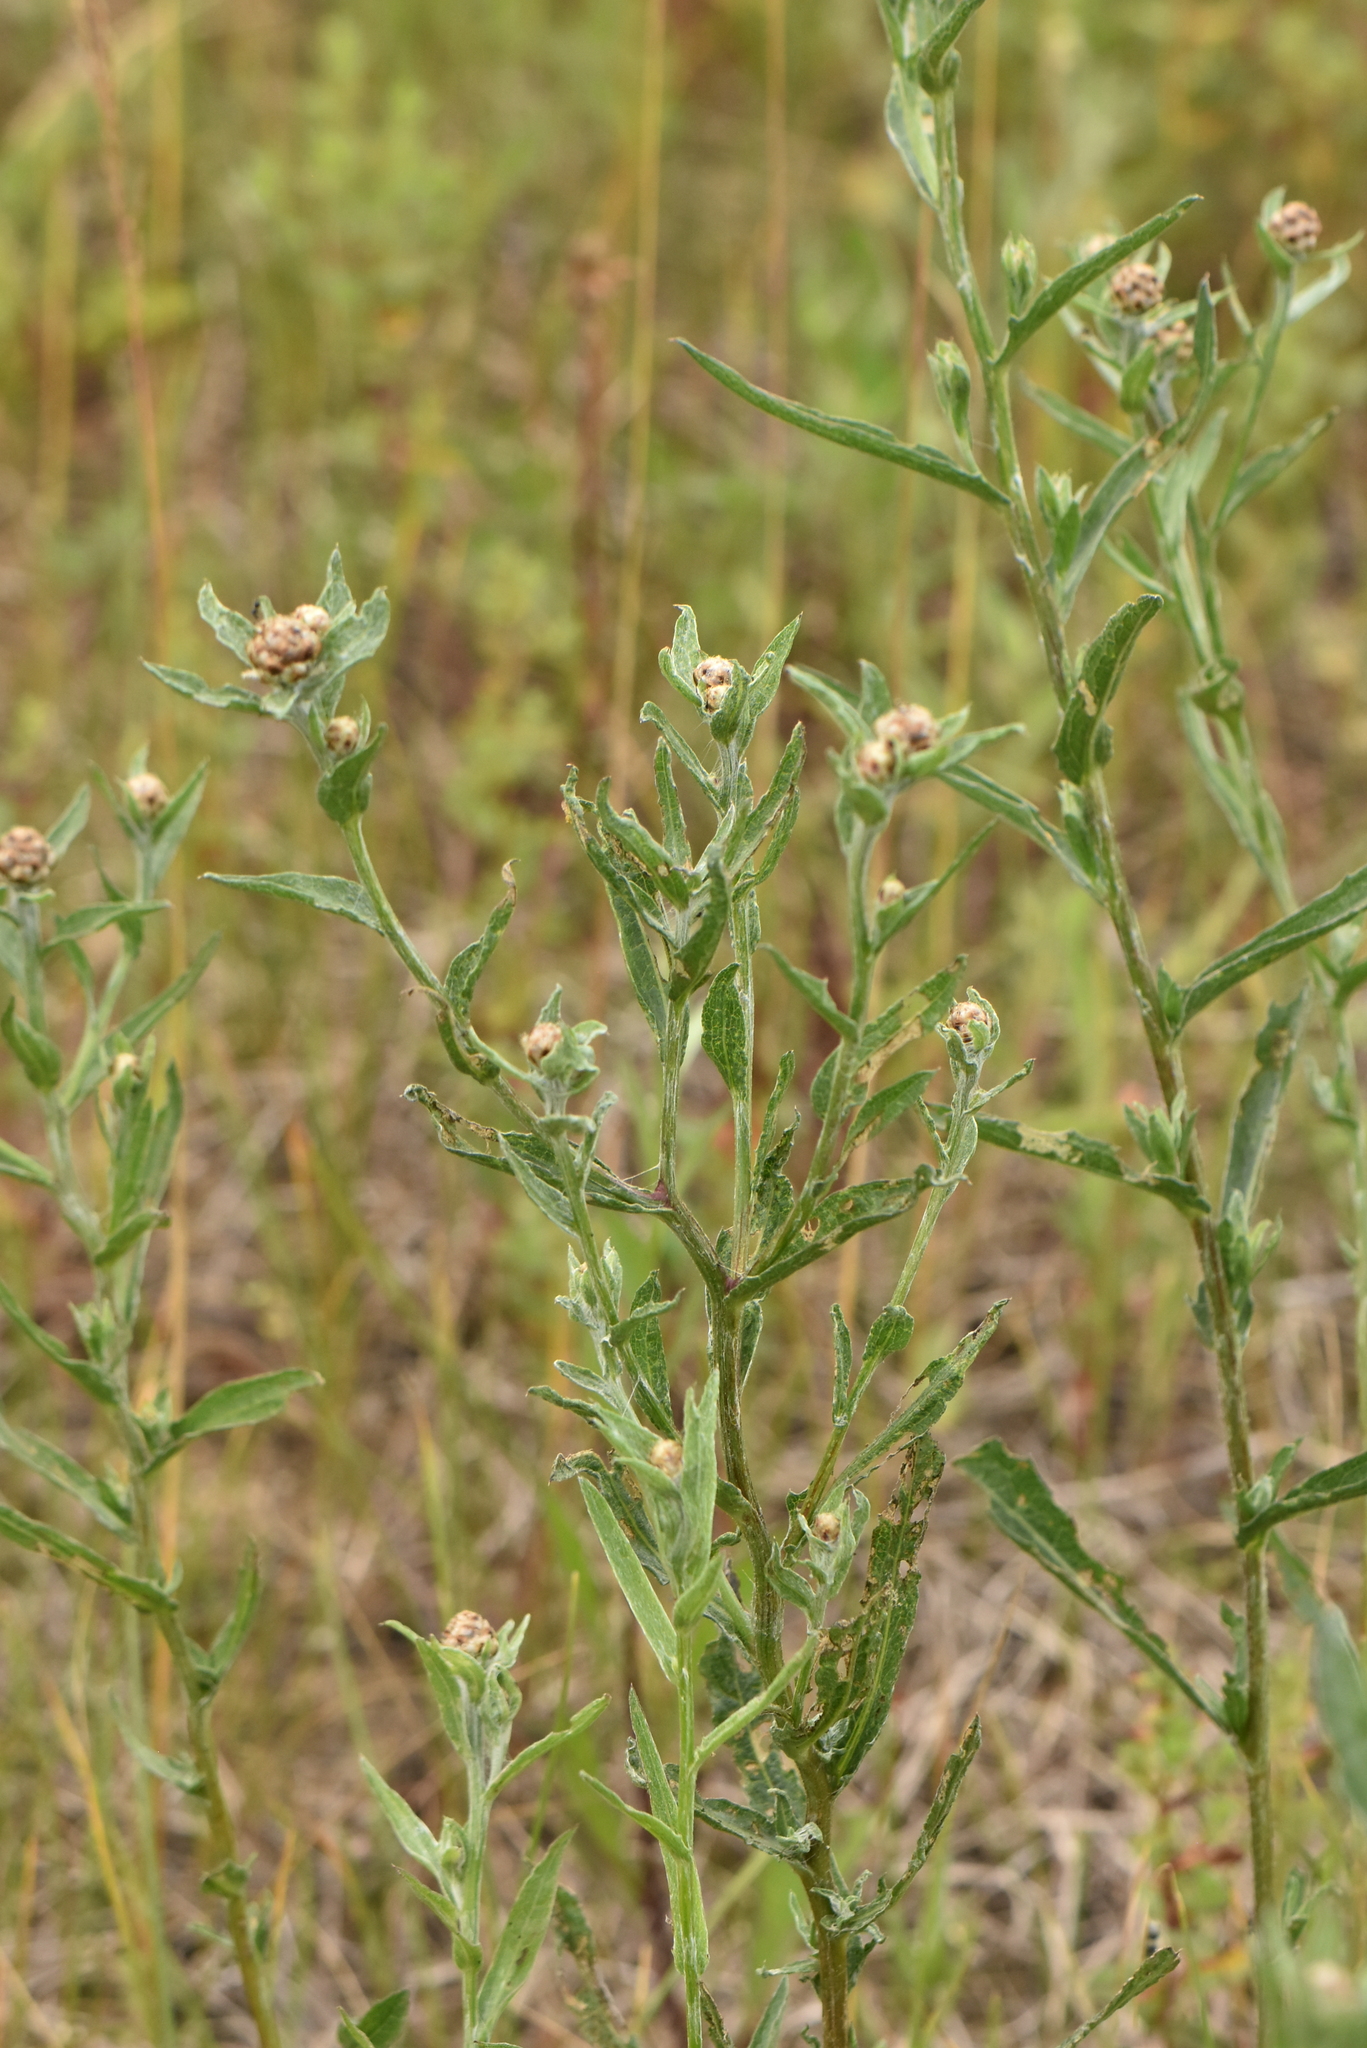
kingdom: Plantae
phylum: Tracheophyta
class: Magnoliopsida
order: Asterales
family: Asteraceae
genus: Centaurea
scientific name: Centaurea jacea
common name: Brown knapweed
